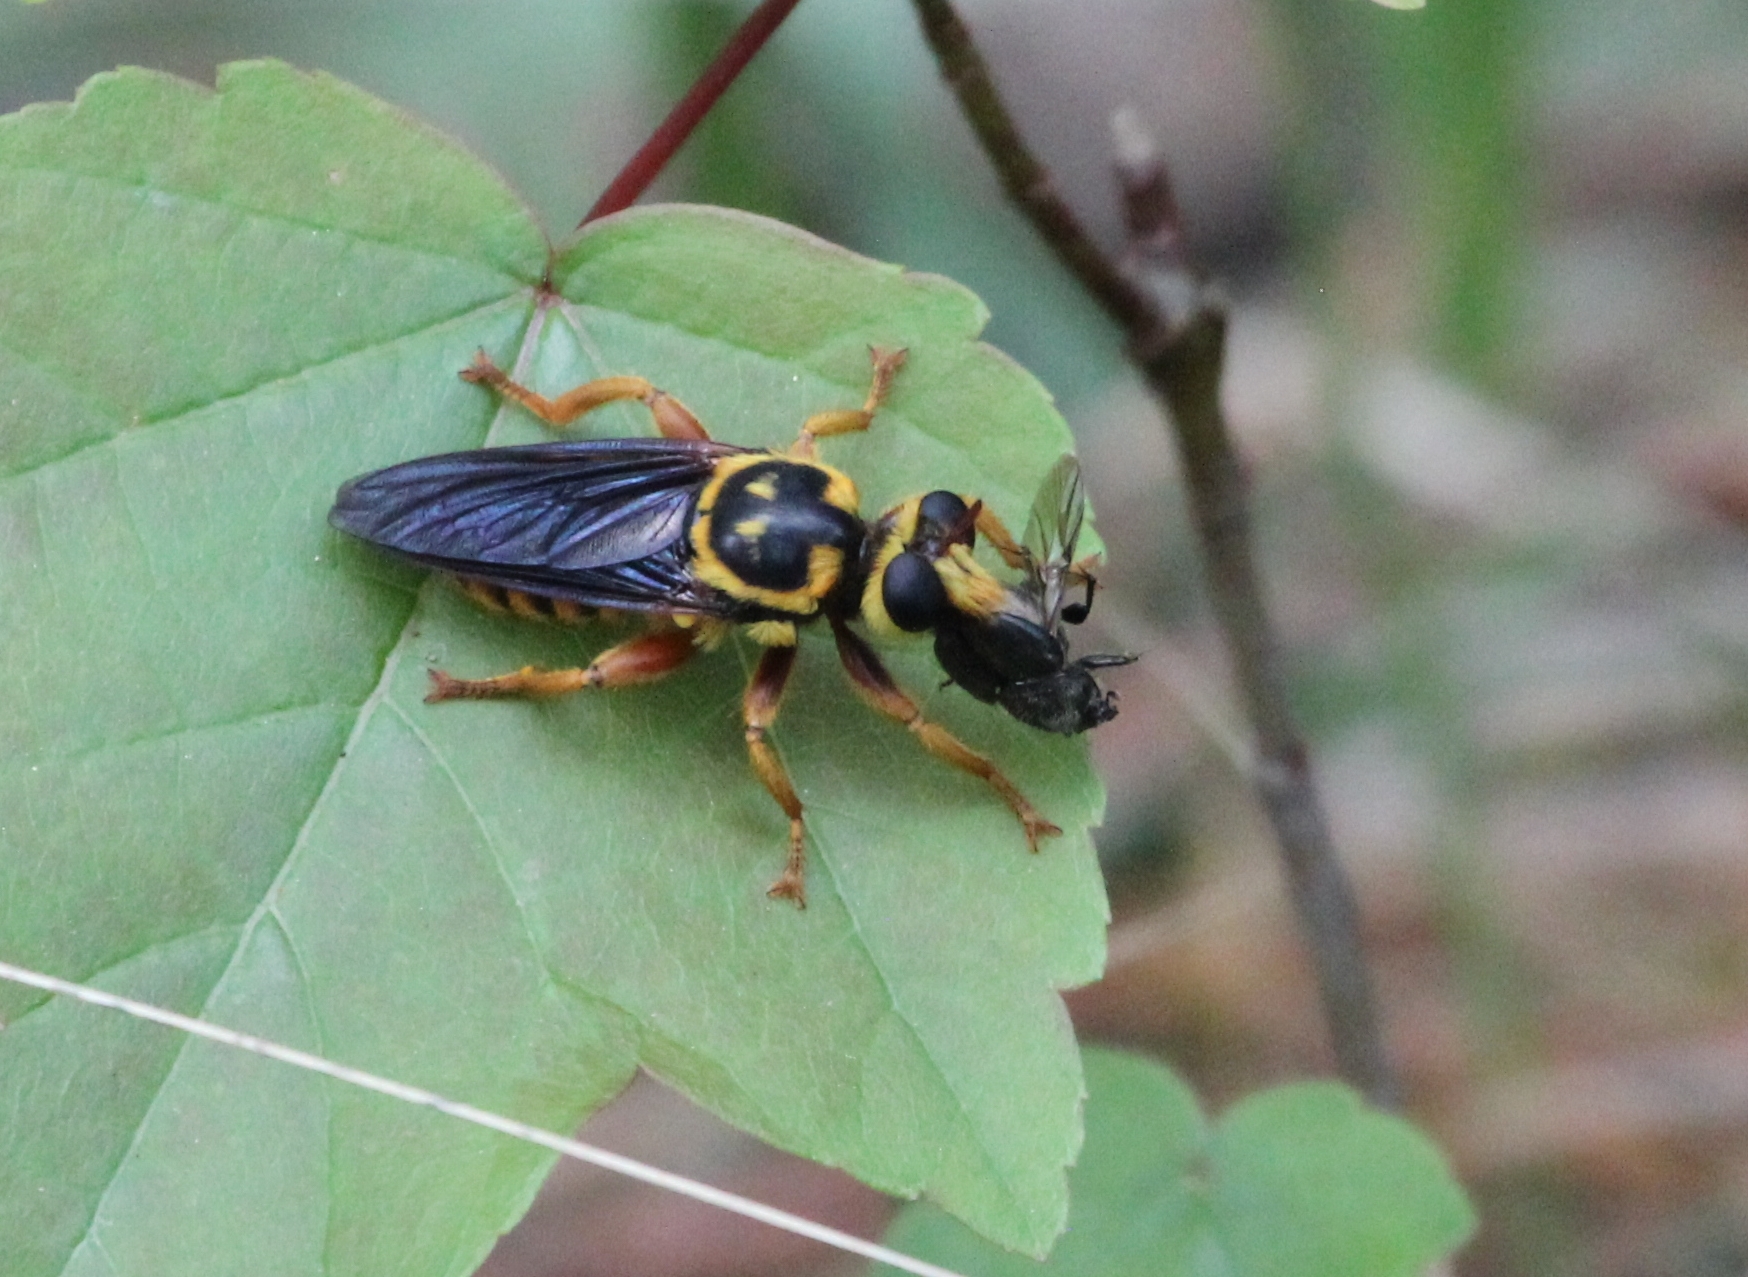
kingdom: Animalia
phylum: Arthropoda
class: Insecta
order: Diptera
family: Asilidae
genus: Laphria
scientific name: Laphria saffrana
